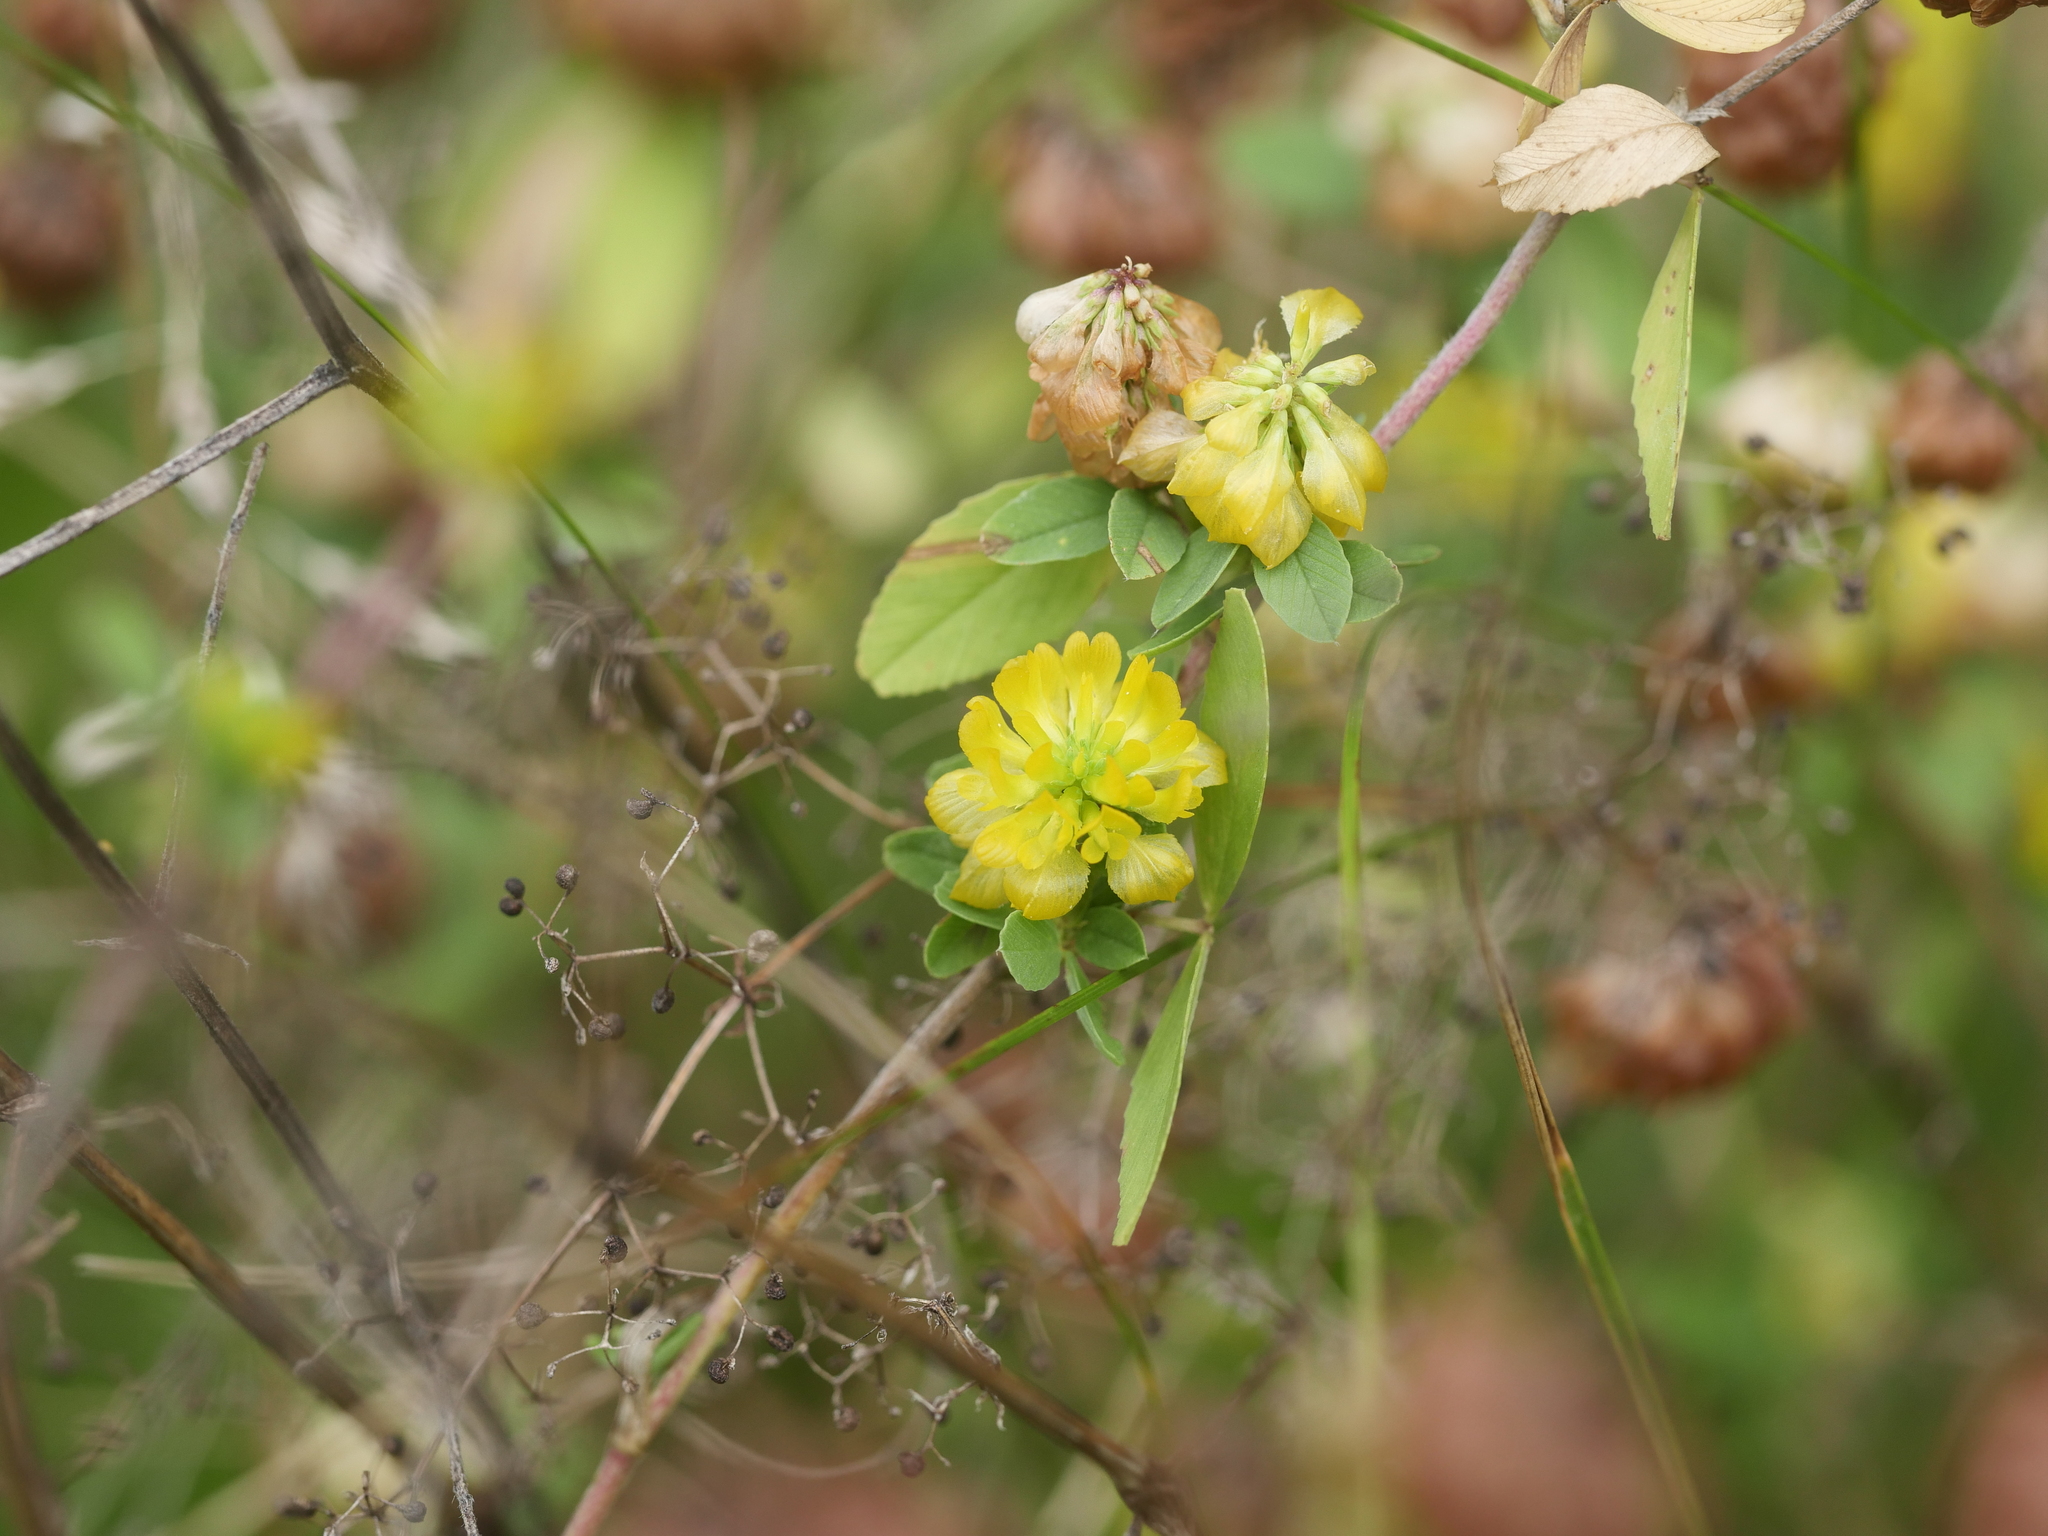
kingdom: Plantae
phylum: Tracheophyta
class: Magnoliopsida
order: Fabales
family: Fabaceae
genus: Trifolium
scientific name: Trifolium aureum
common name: Golden clover
